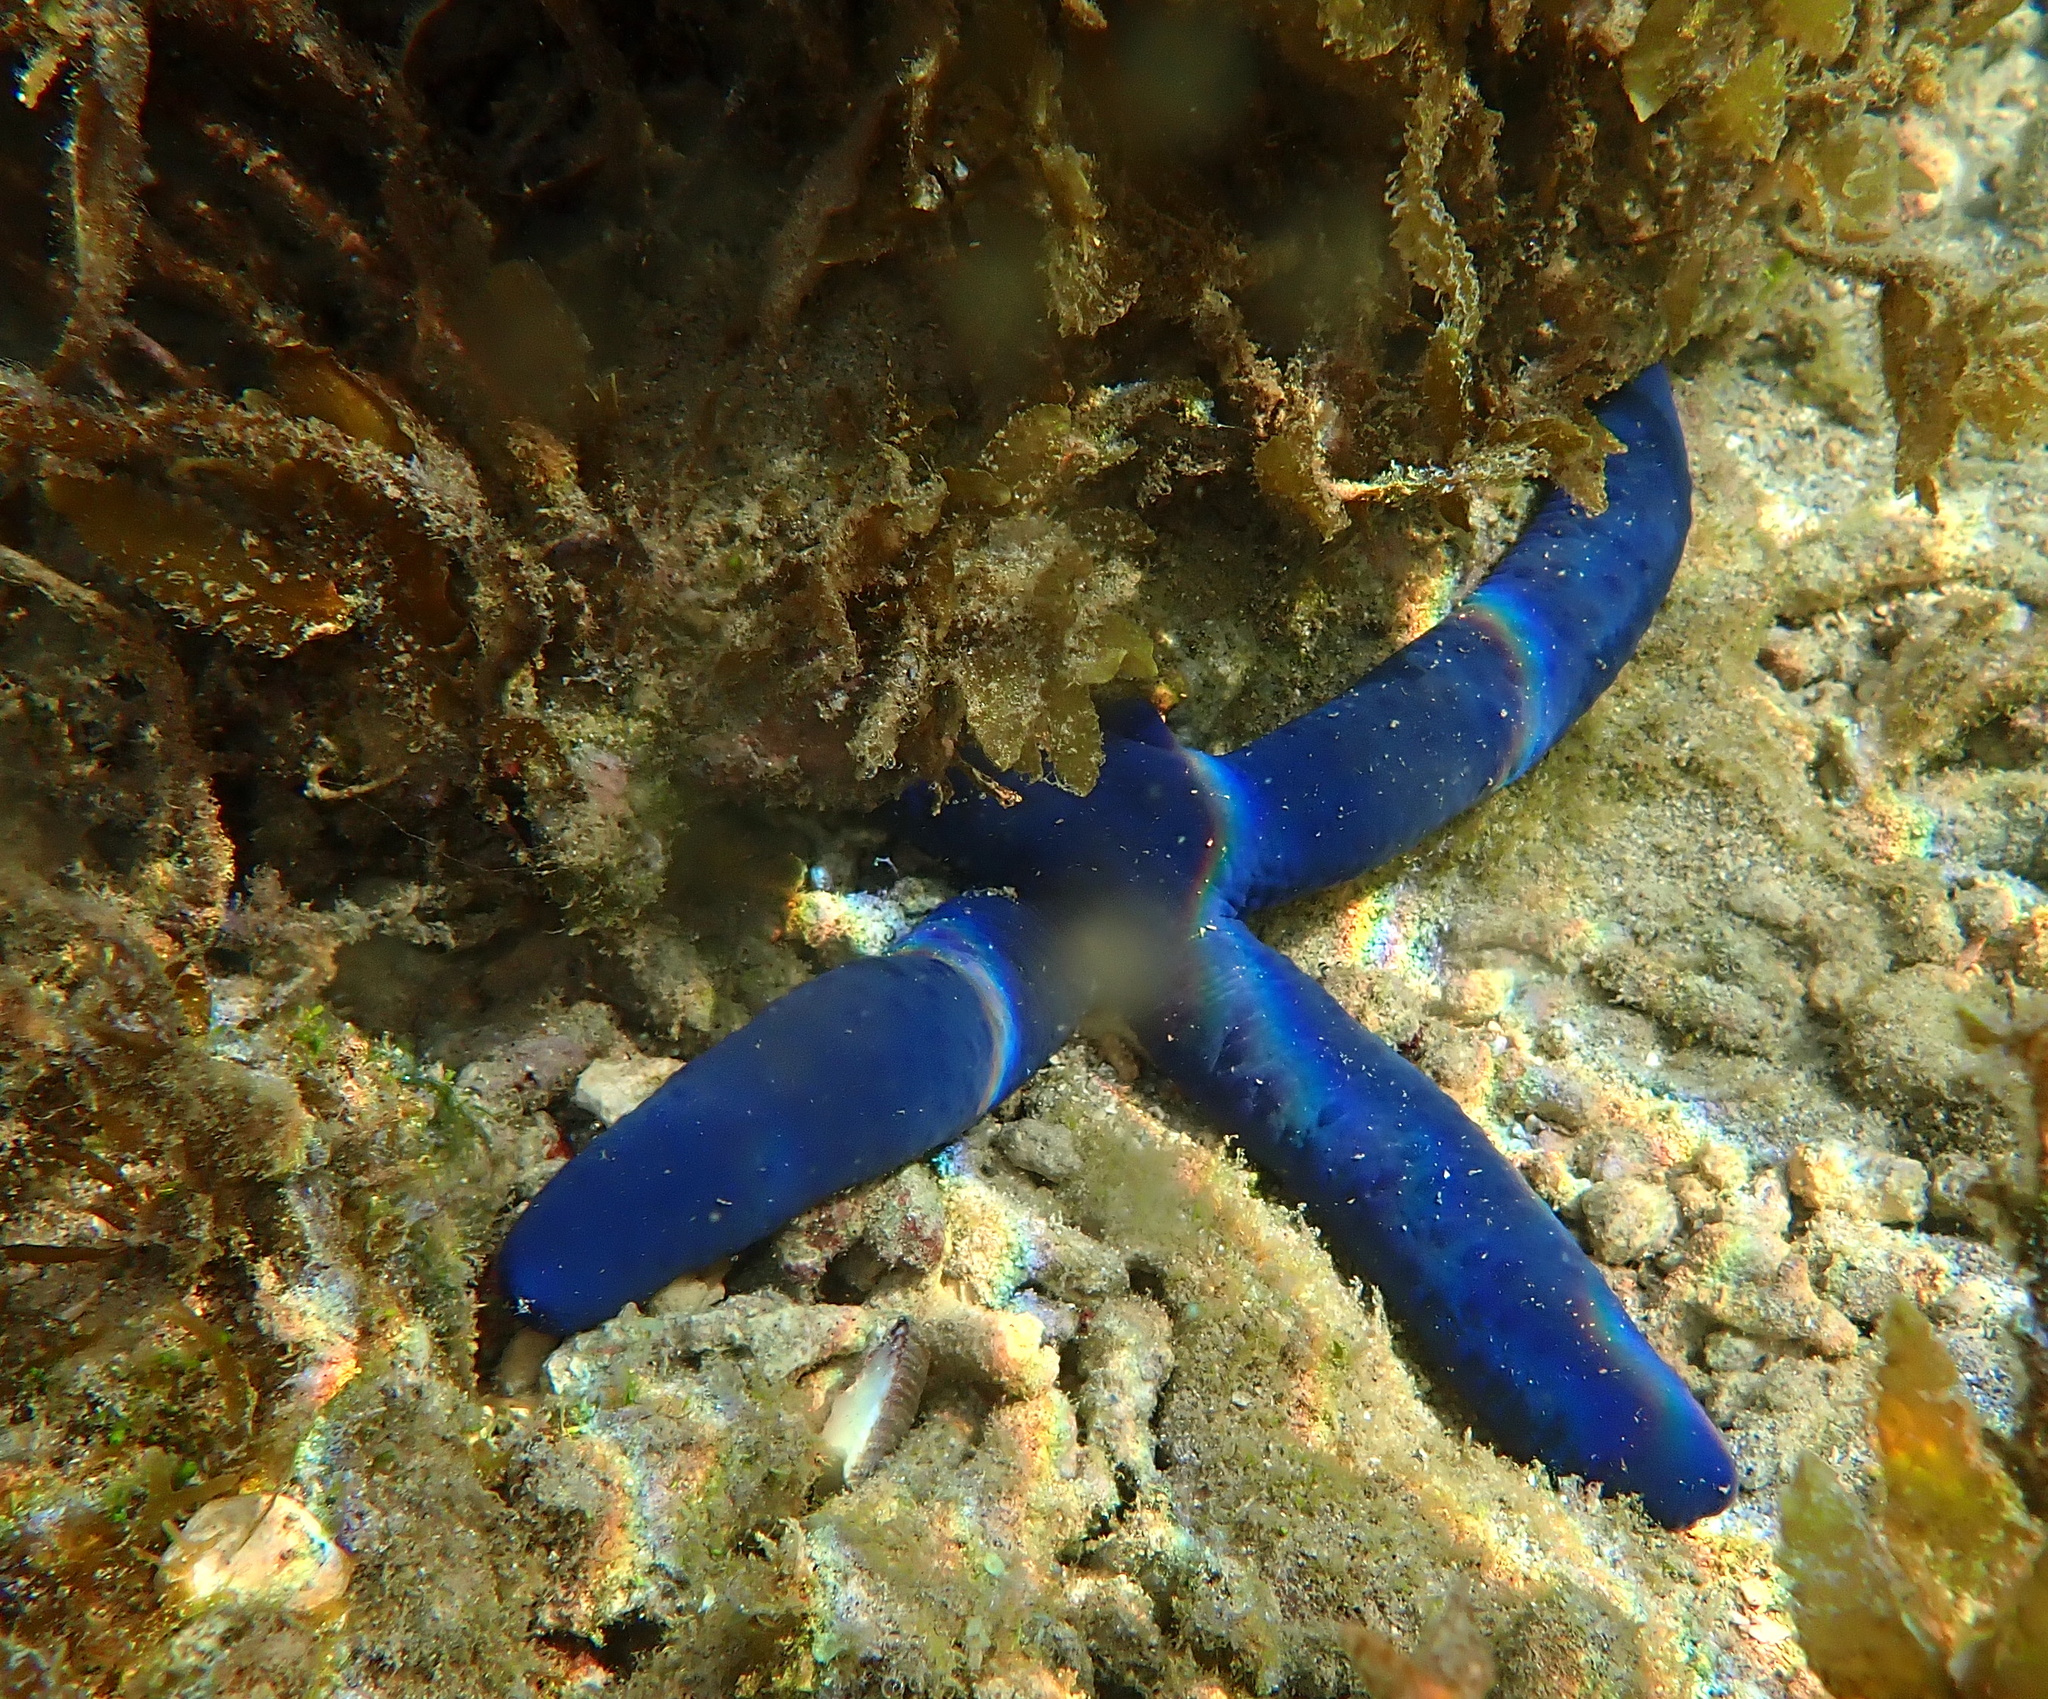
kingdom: Animalia
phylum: Echinodermata
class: Asteroidea
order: Valvatida
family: Ophidiasteridae
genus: Linckia
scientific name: Linckia laevigata
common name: Azure sea star
